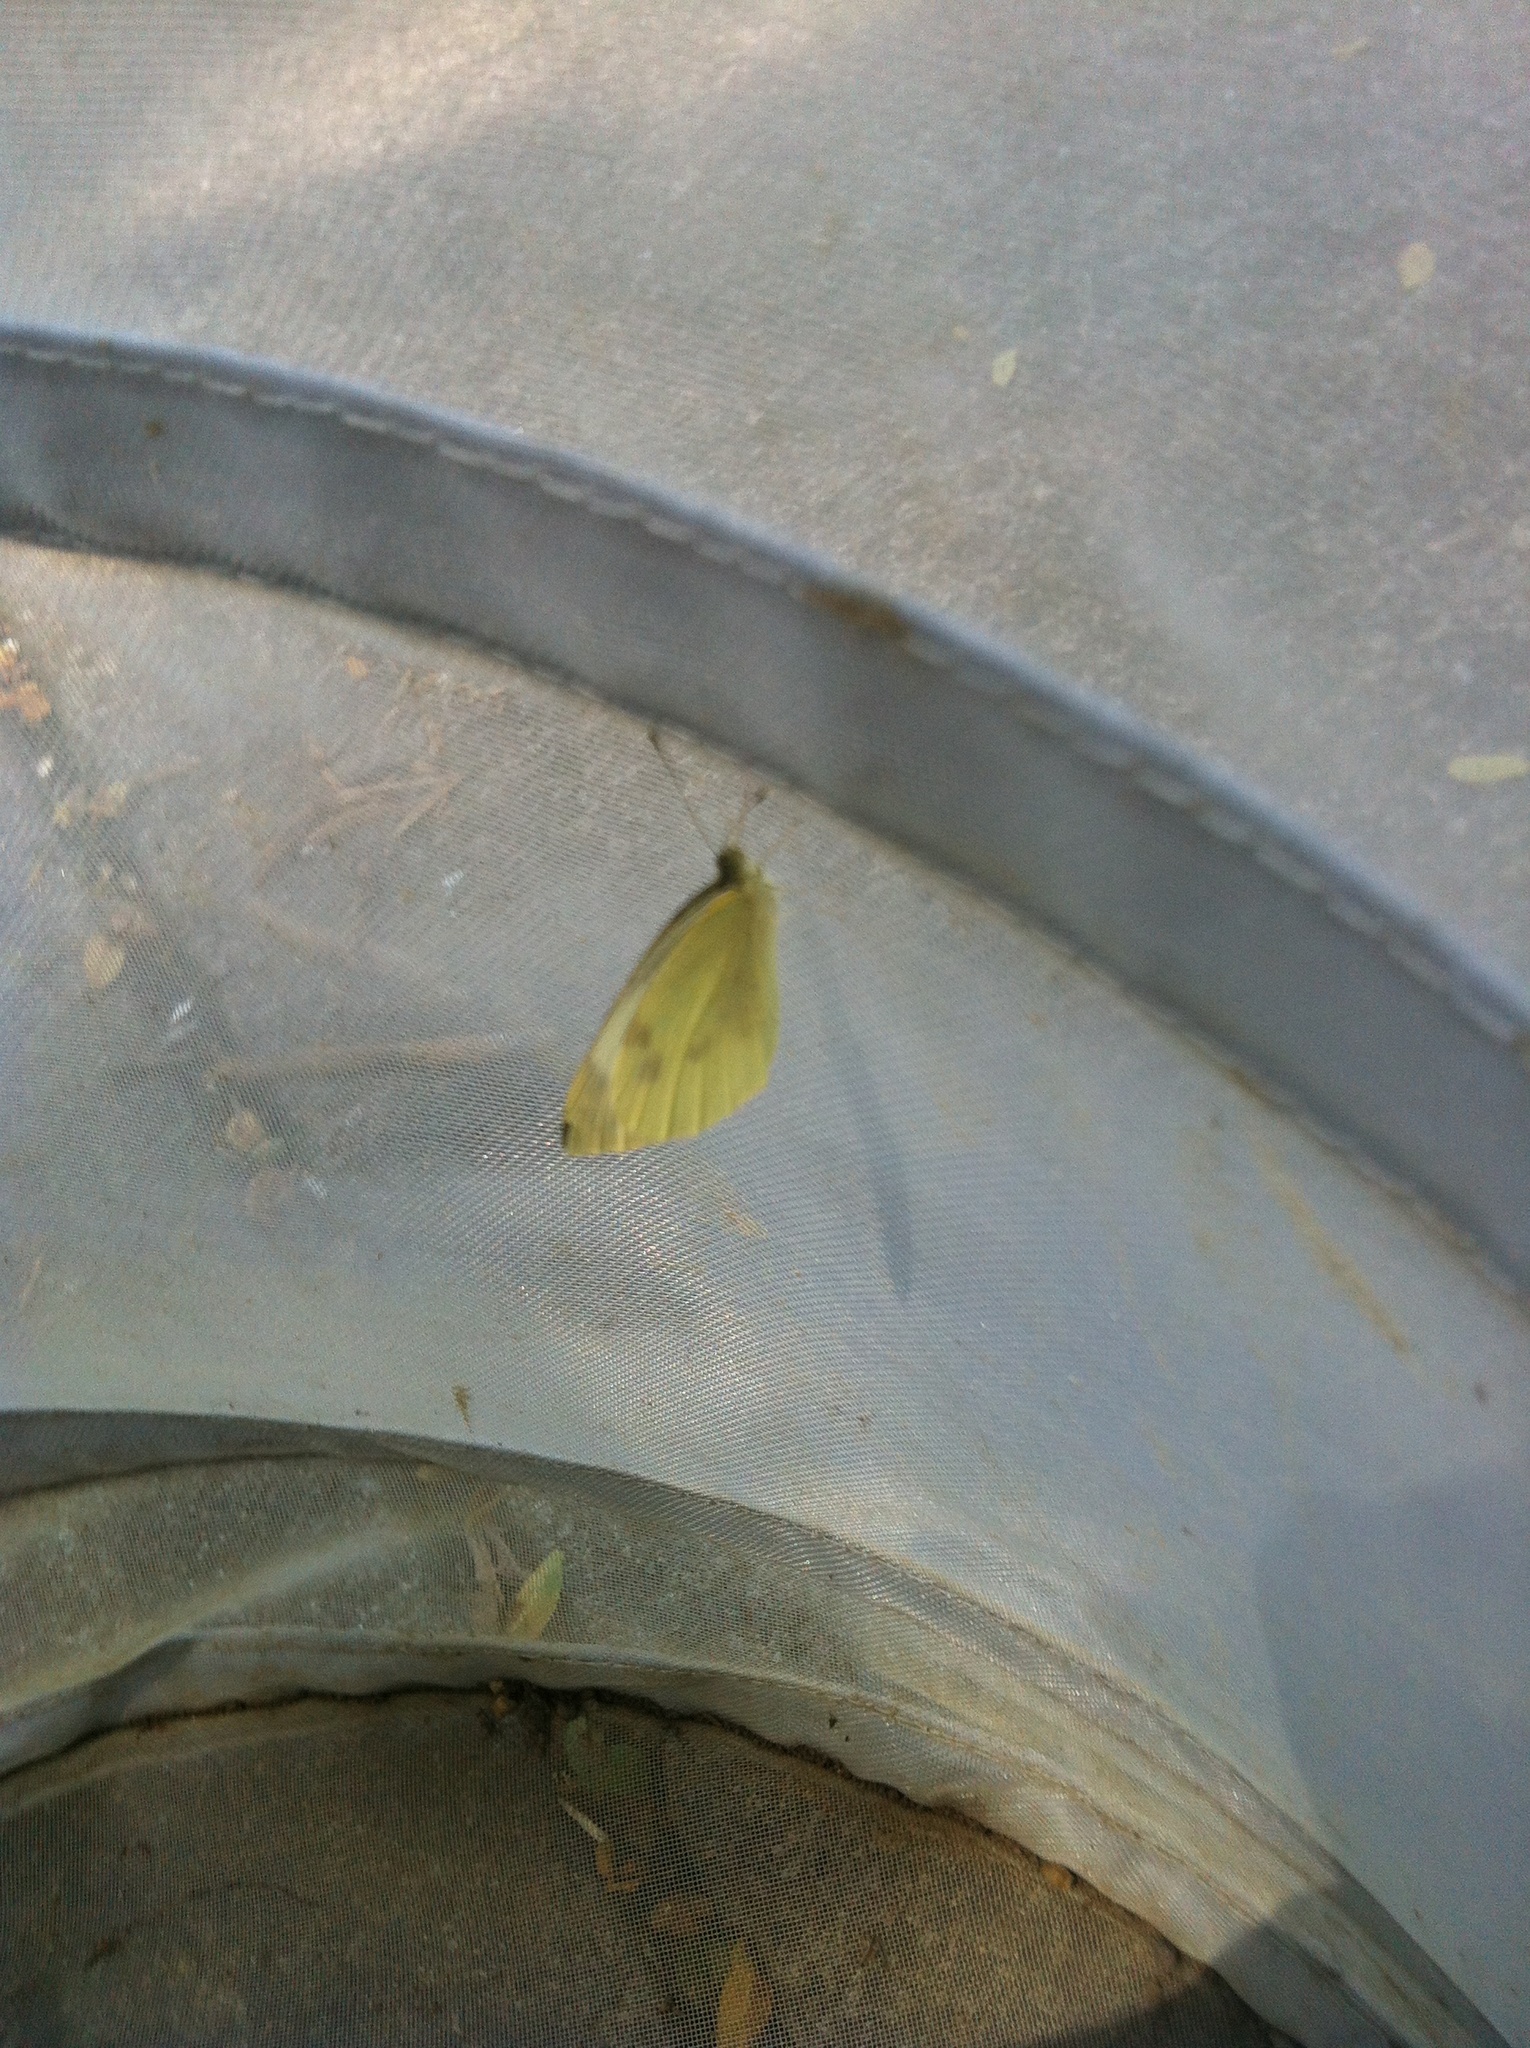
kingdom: Animalia
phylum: Arthropoda
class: Insecta
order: Lepidoptera
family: Pieridae
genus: Pieris
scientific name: Pieris rapae
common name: Small white
